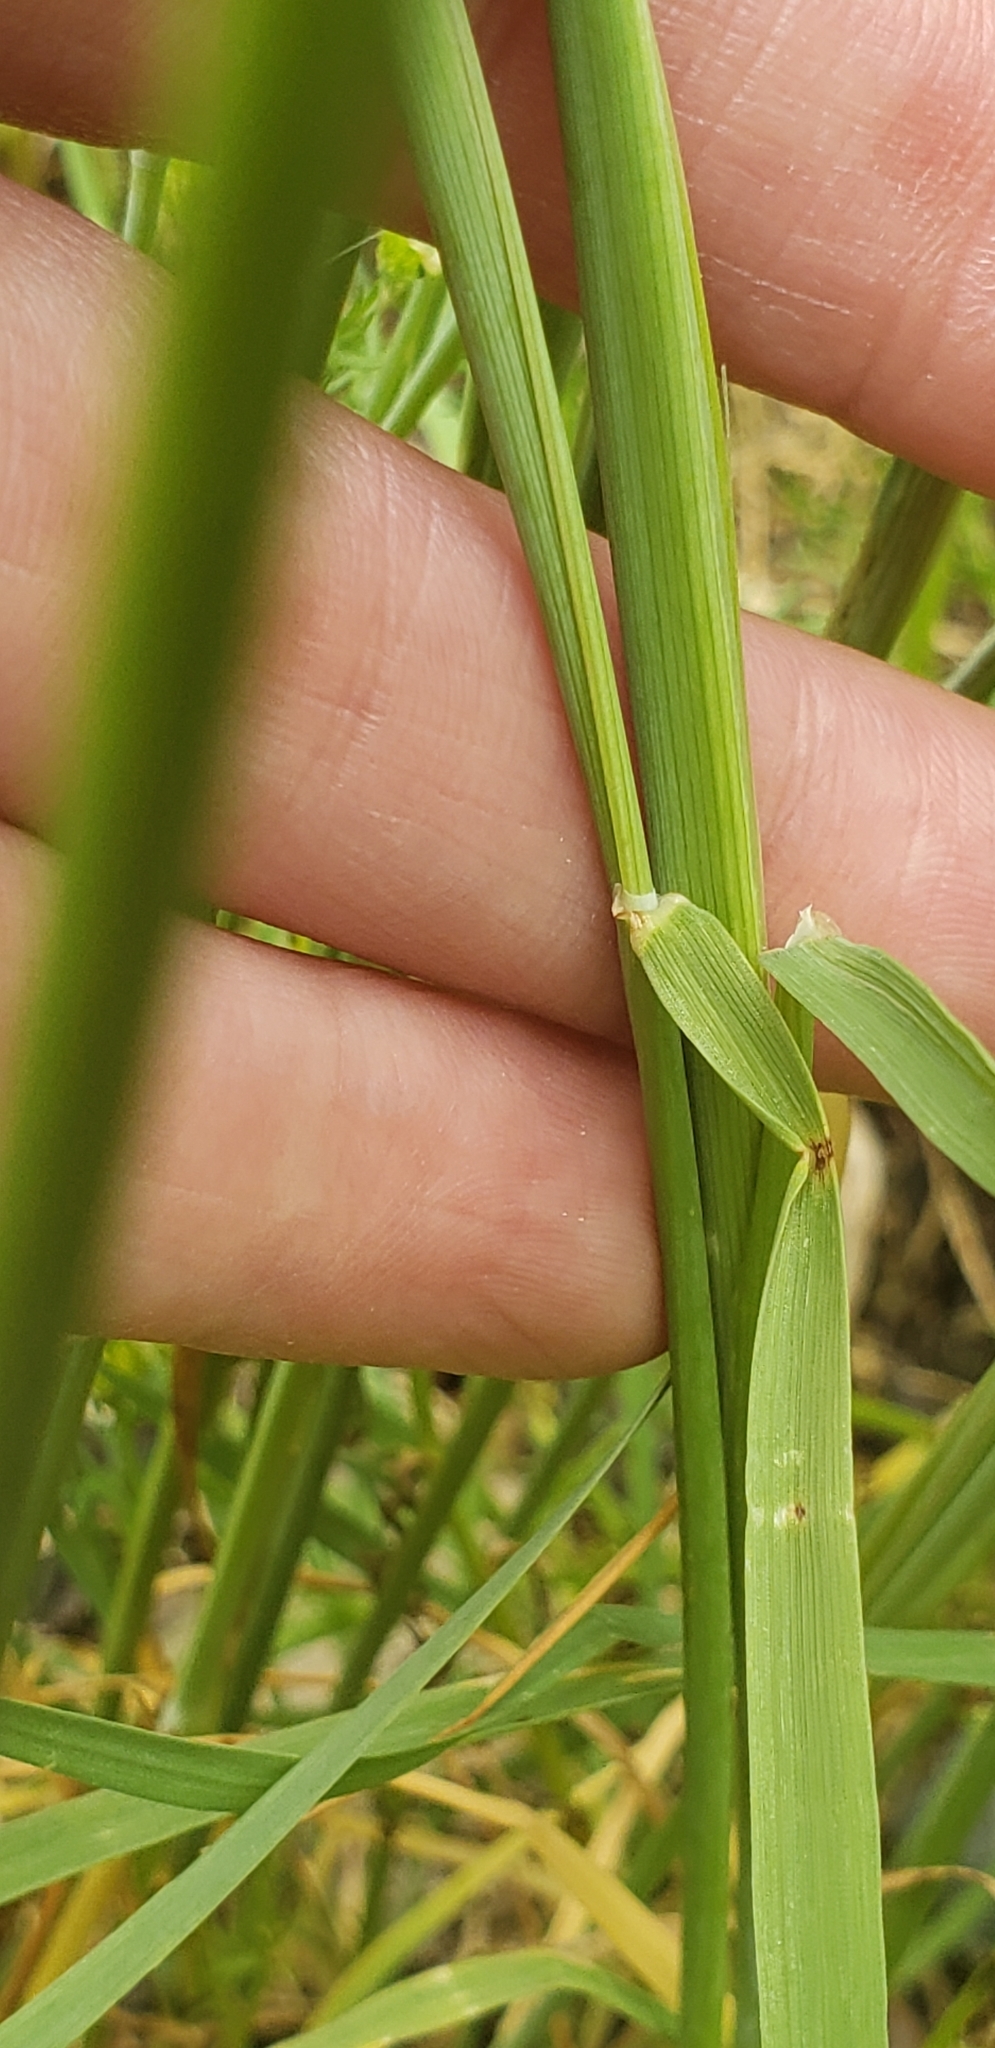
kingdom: Plantae
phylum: Tracheophyta
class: Liliopsida
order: Poales
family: Poaceae
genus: Hordeum
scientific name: Hordeum jubatum
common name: Foxtail barley
